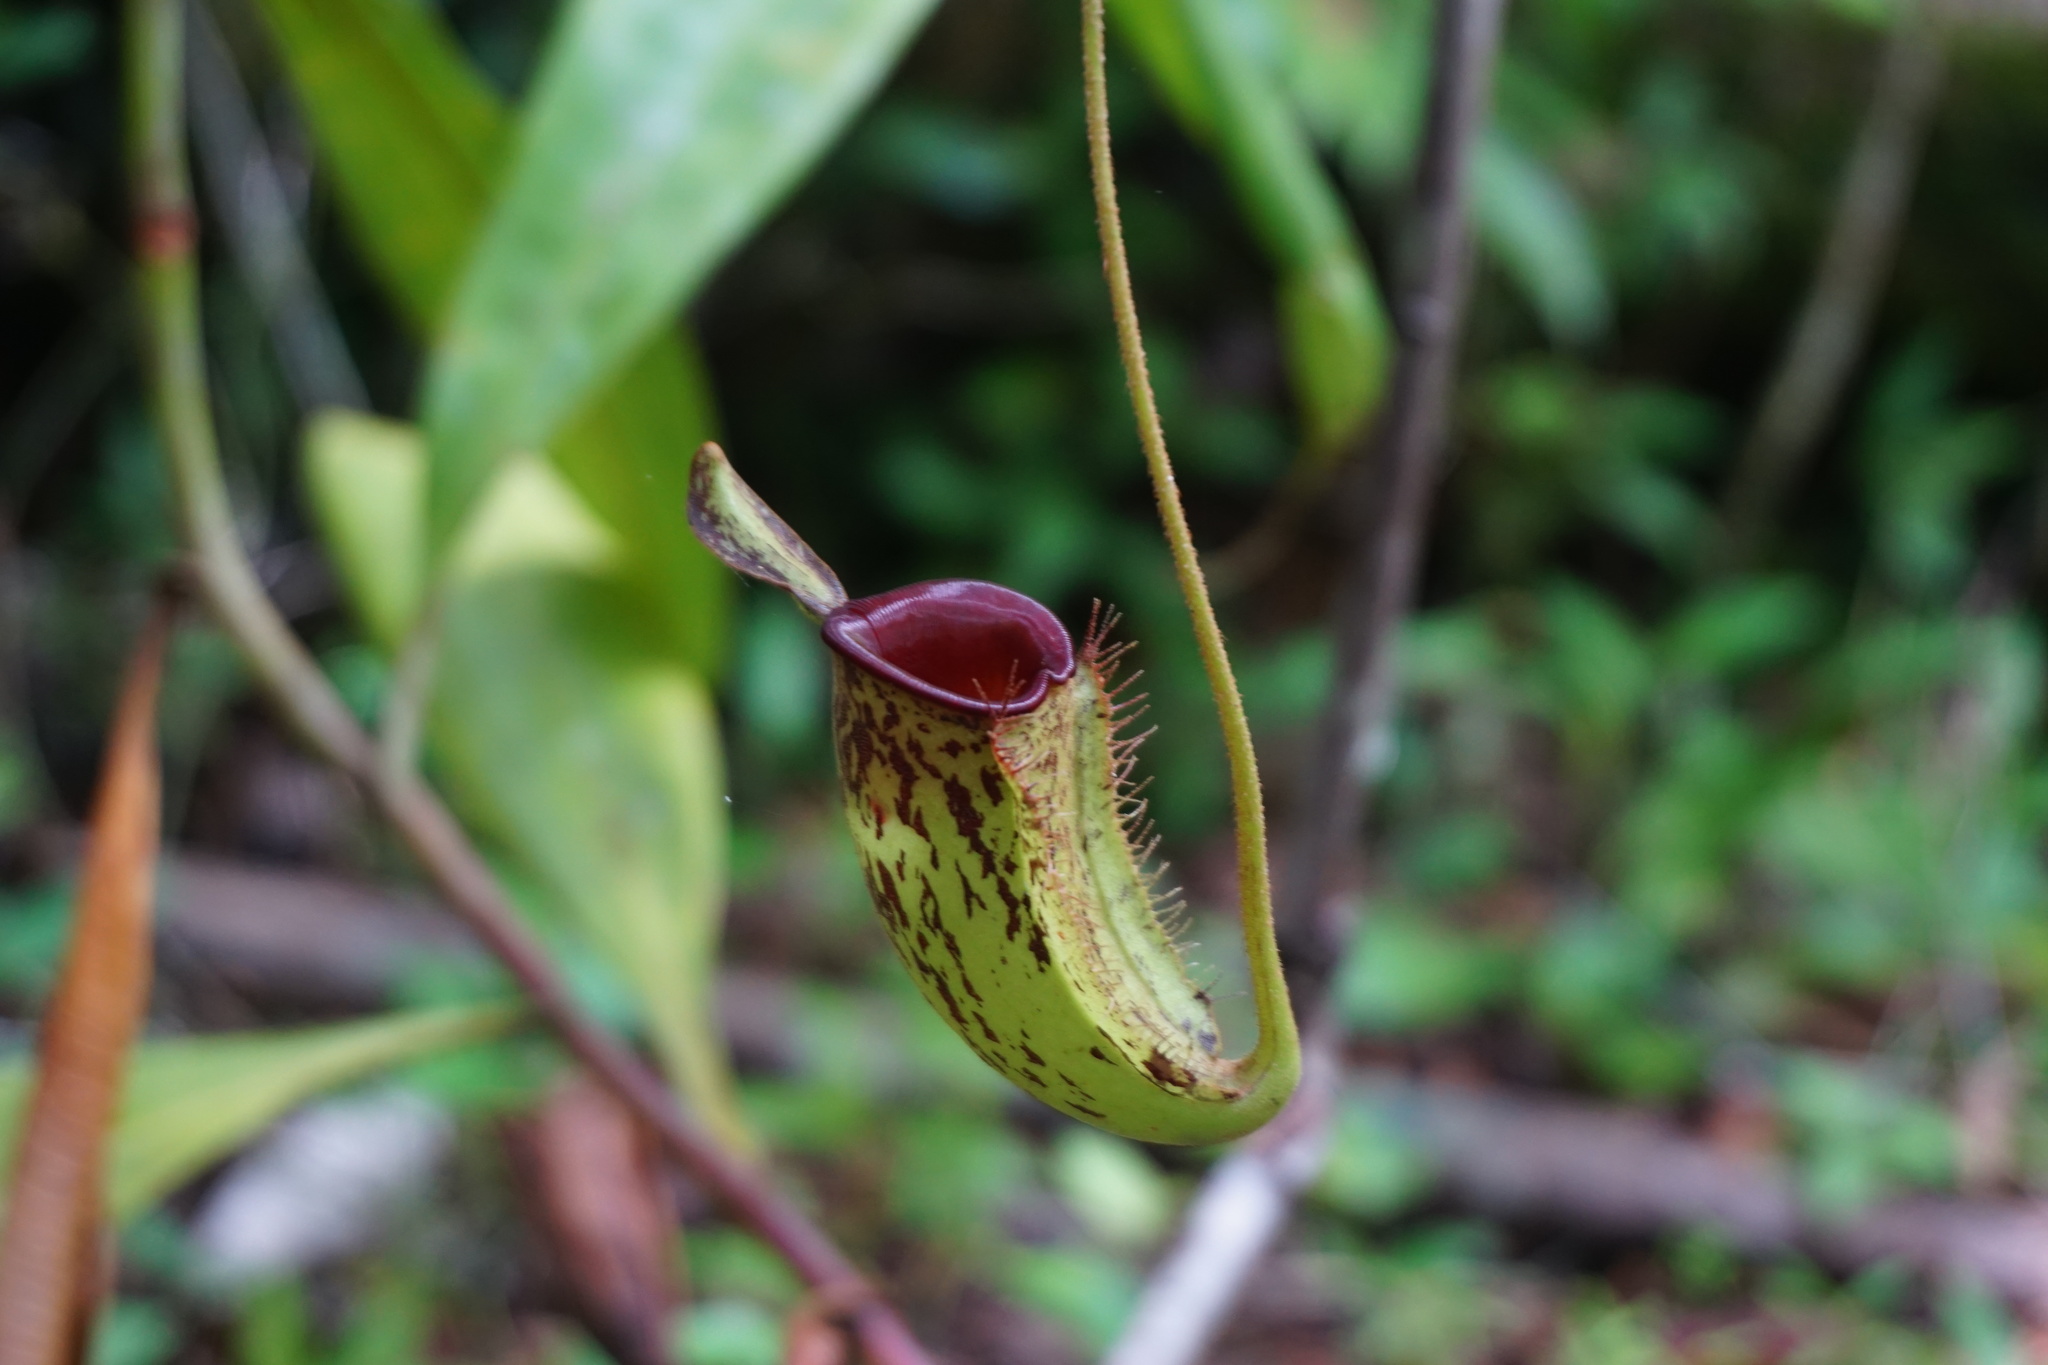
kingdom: Plantae
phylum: Tracheophyta
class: Magnoliopsida
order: Caryophyllales
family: Nepenthaceae
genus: Nepenthes
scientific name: Nepenthes ampullaria
